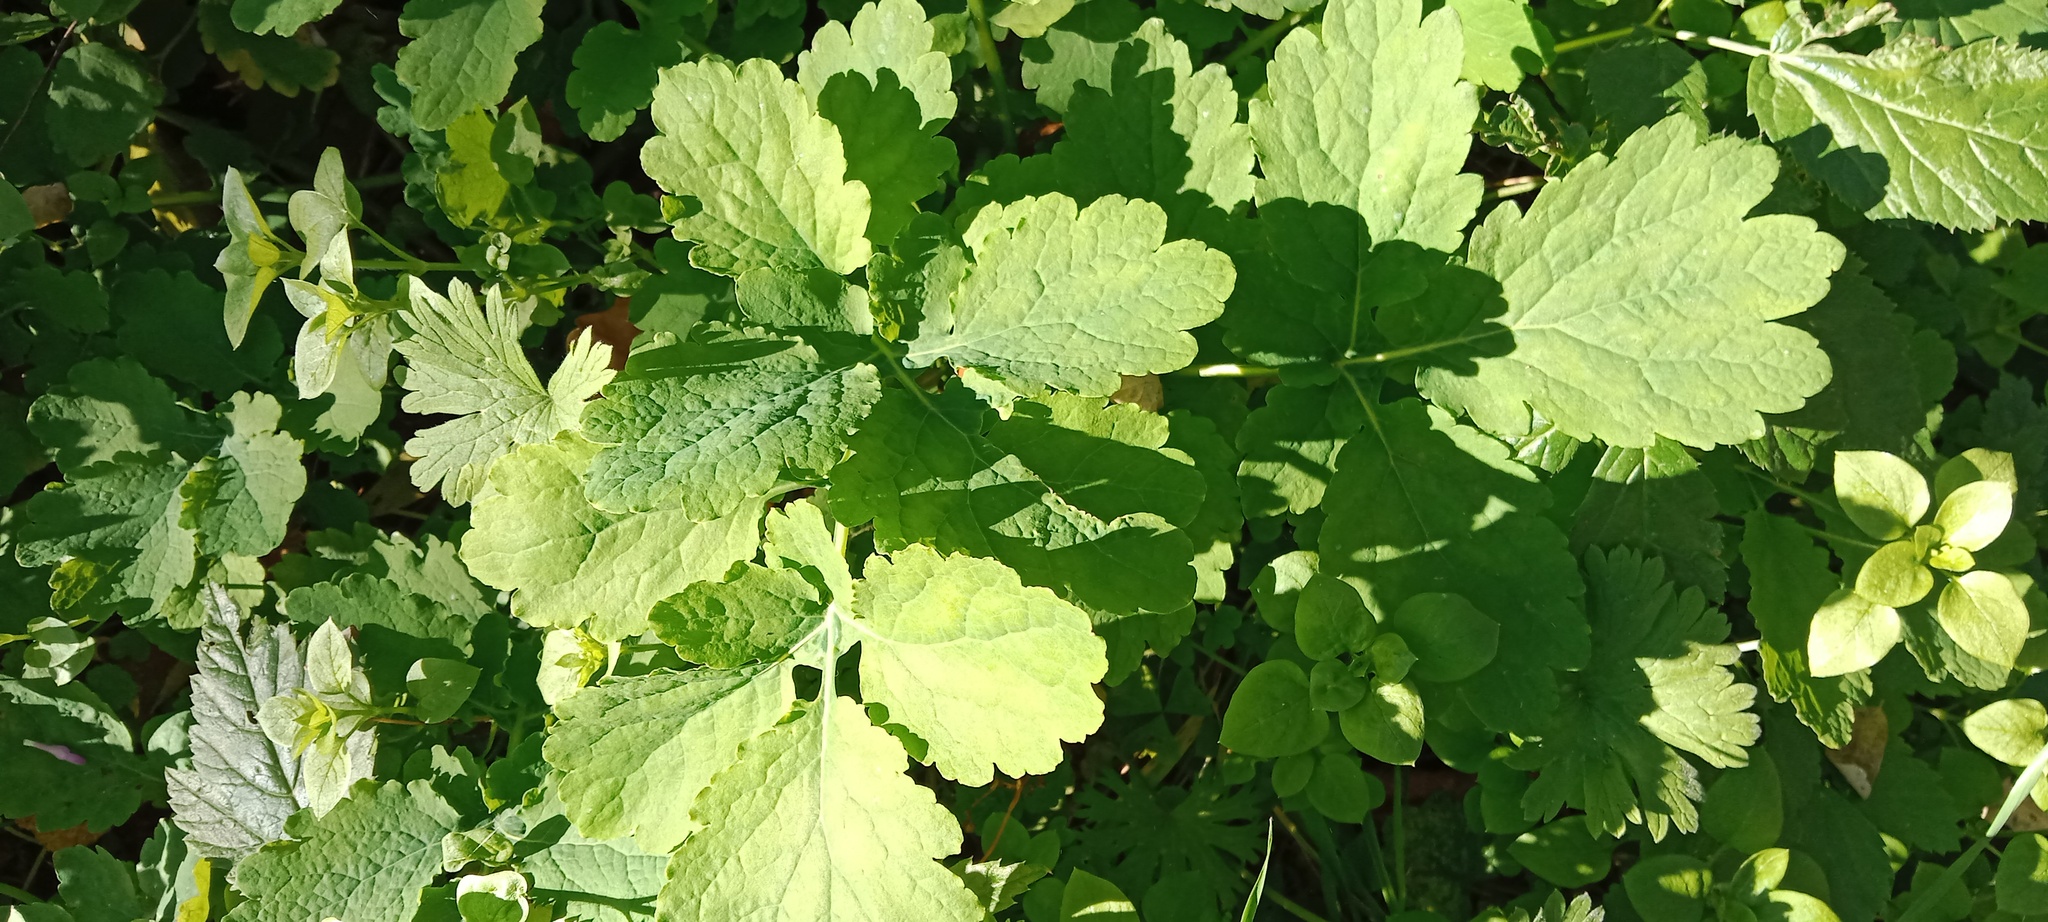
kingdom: Plantae
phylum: Tracheophyta
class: Magnoliopsida
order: Ranunculales
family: Papaveraceae
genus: Chelidonium
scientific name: Chelidonium majus
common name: Greater celandine
